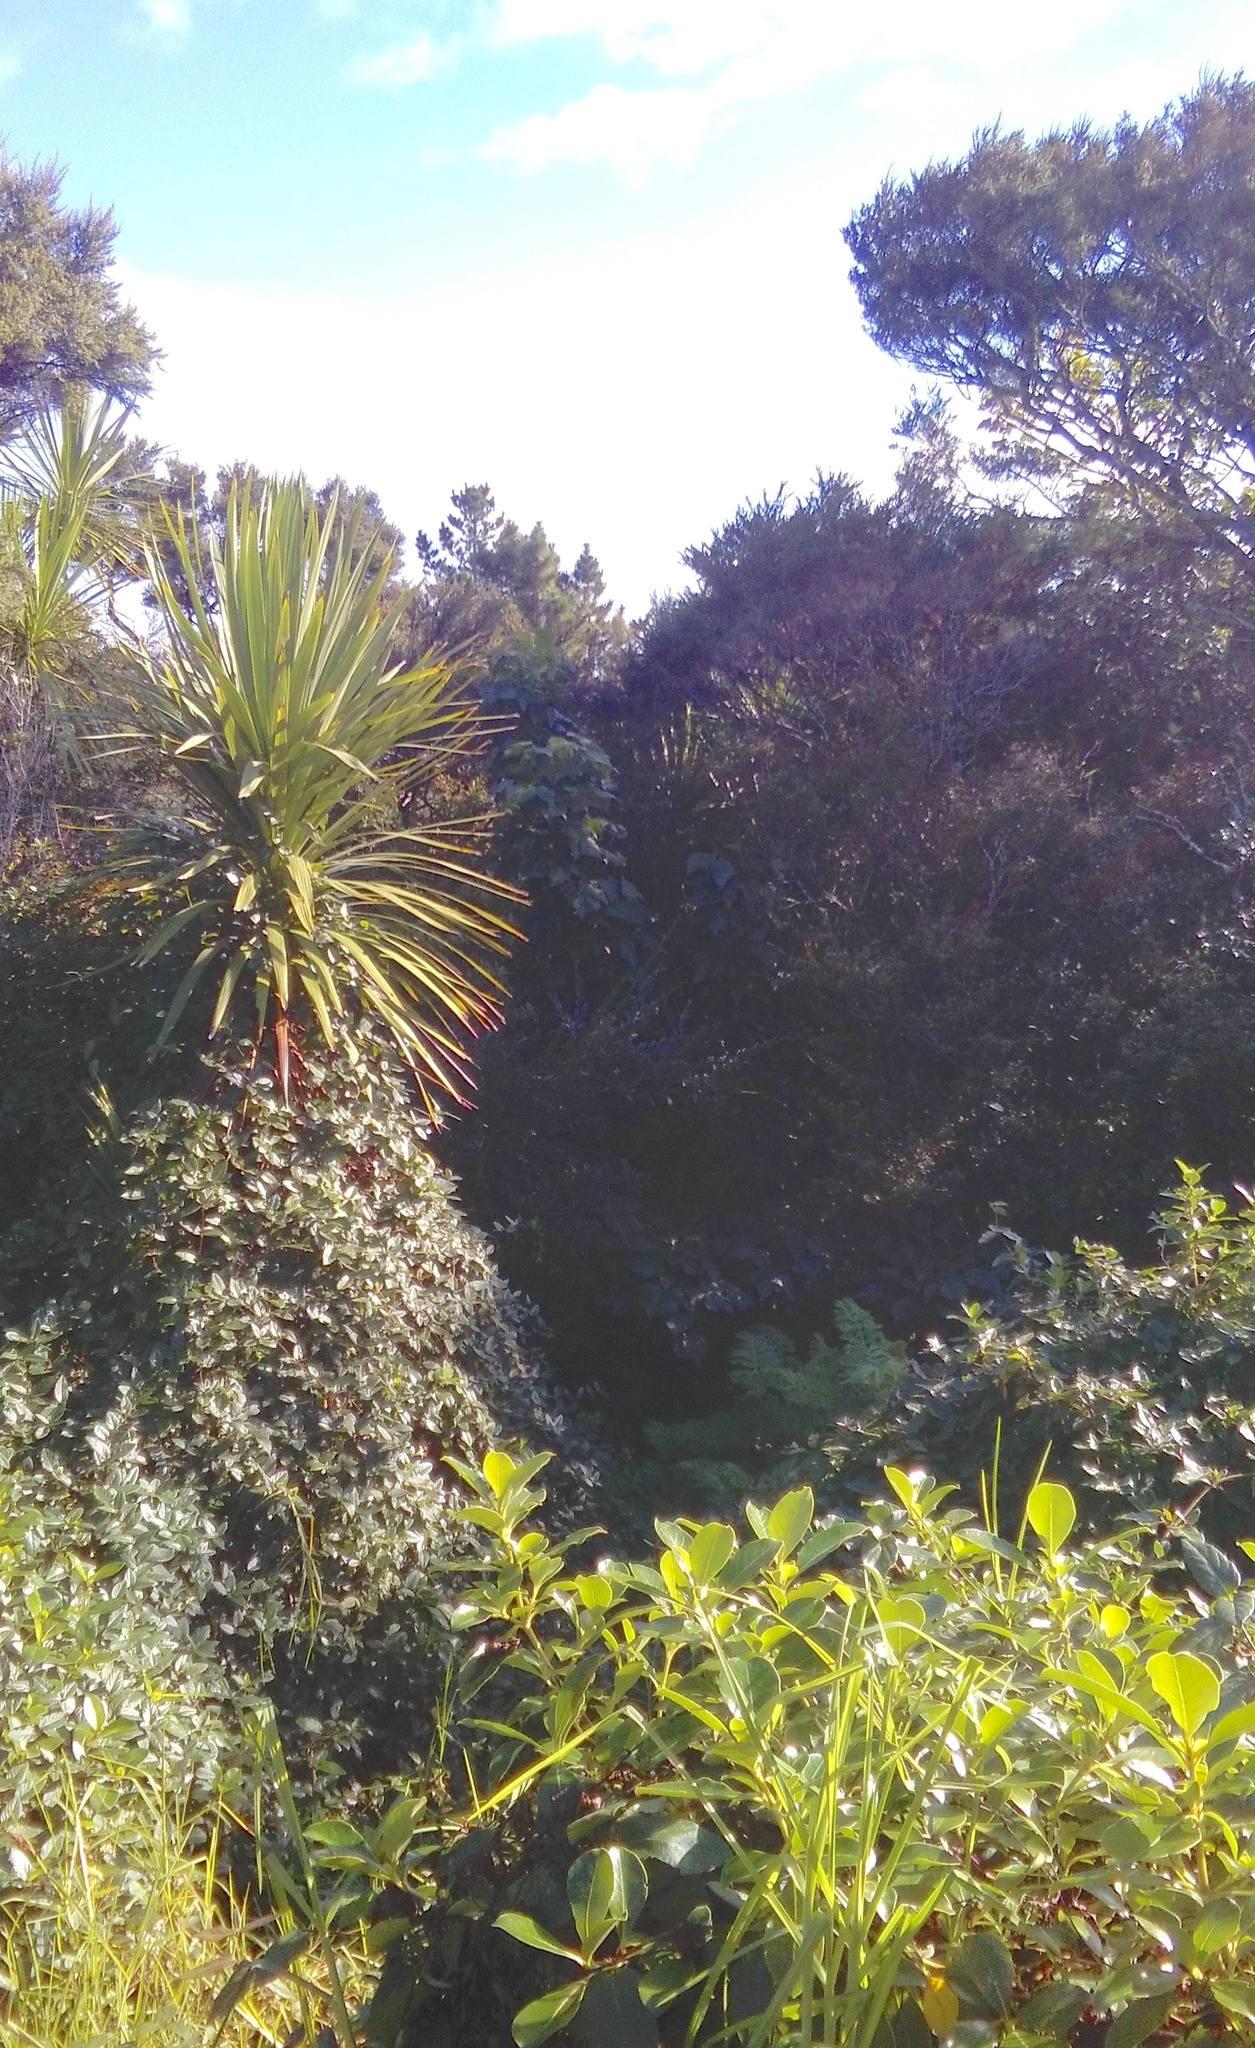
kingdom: Plantae
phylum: Tracheophyta
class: Magnoliopsida
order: Gentianales
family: Rubiaceae
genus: Coprosma
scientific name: Coprosma robusta
